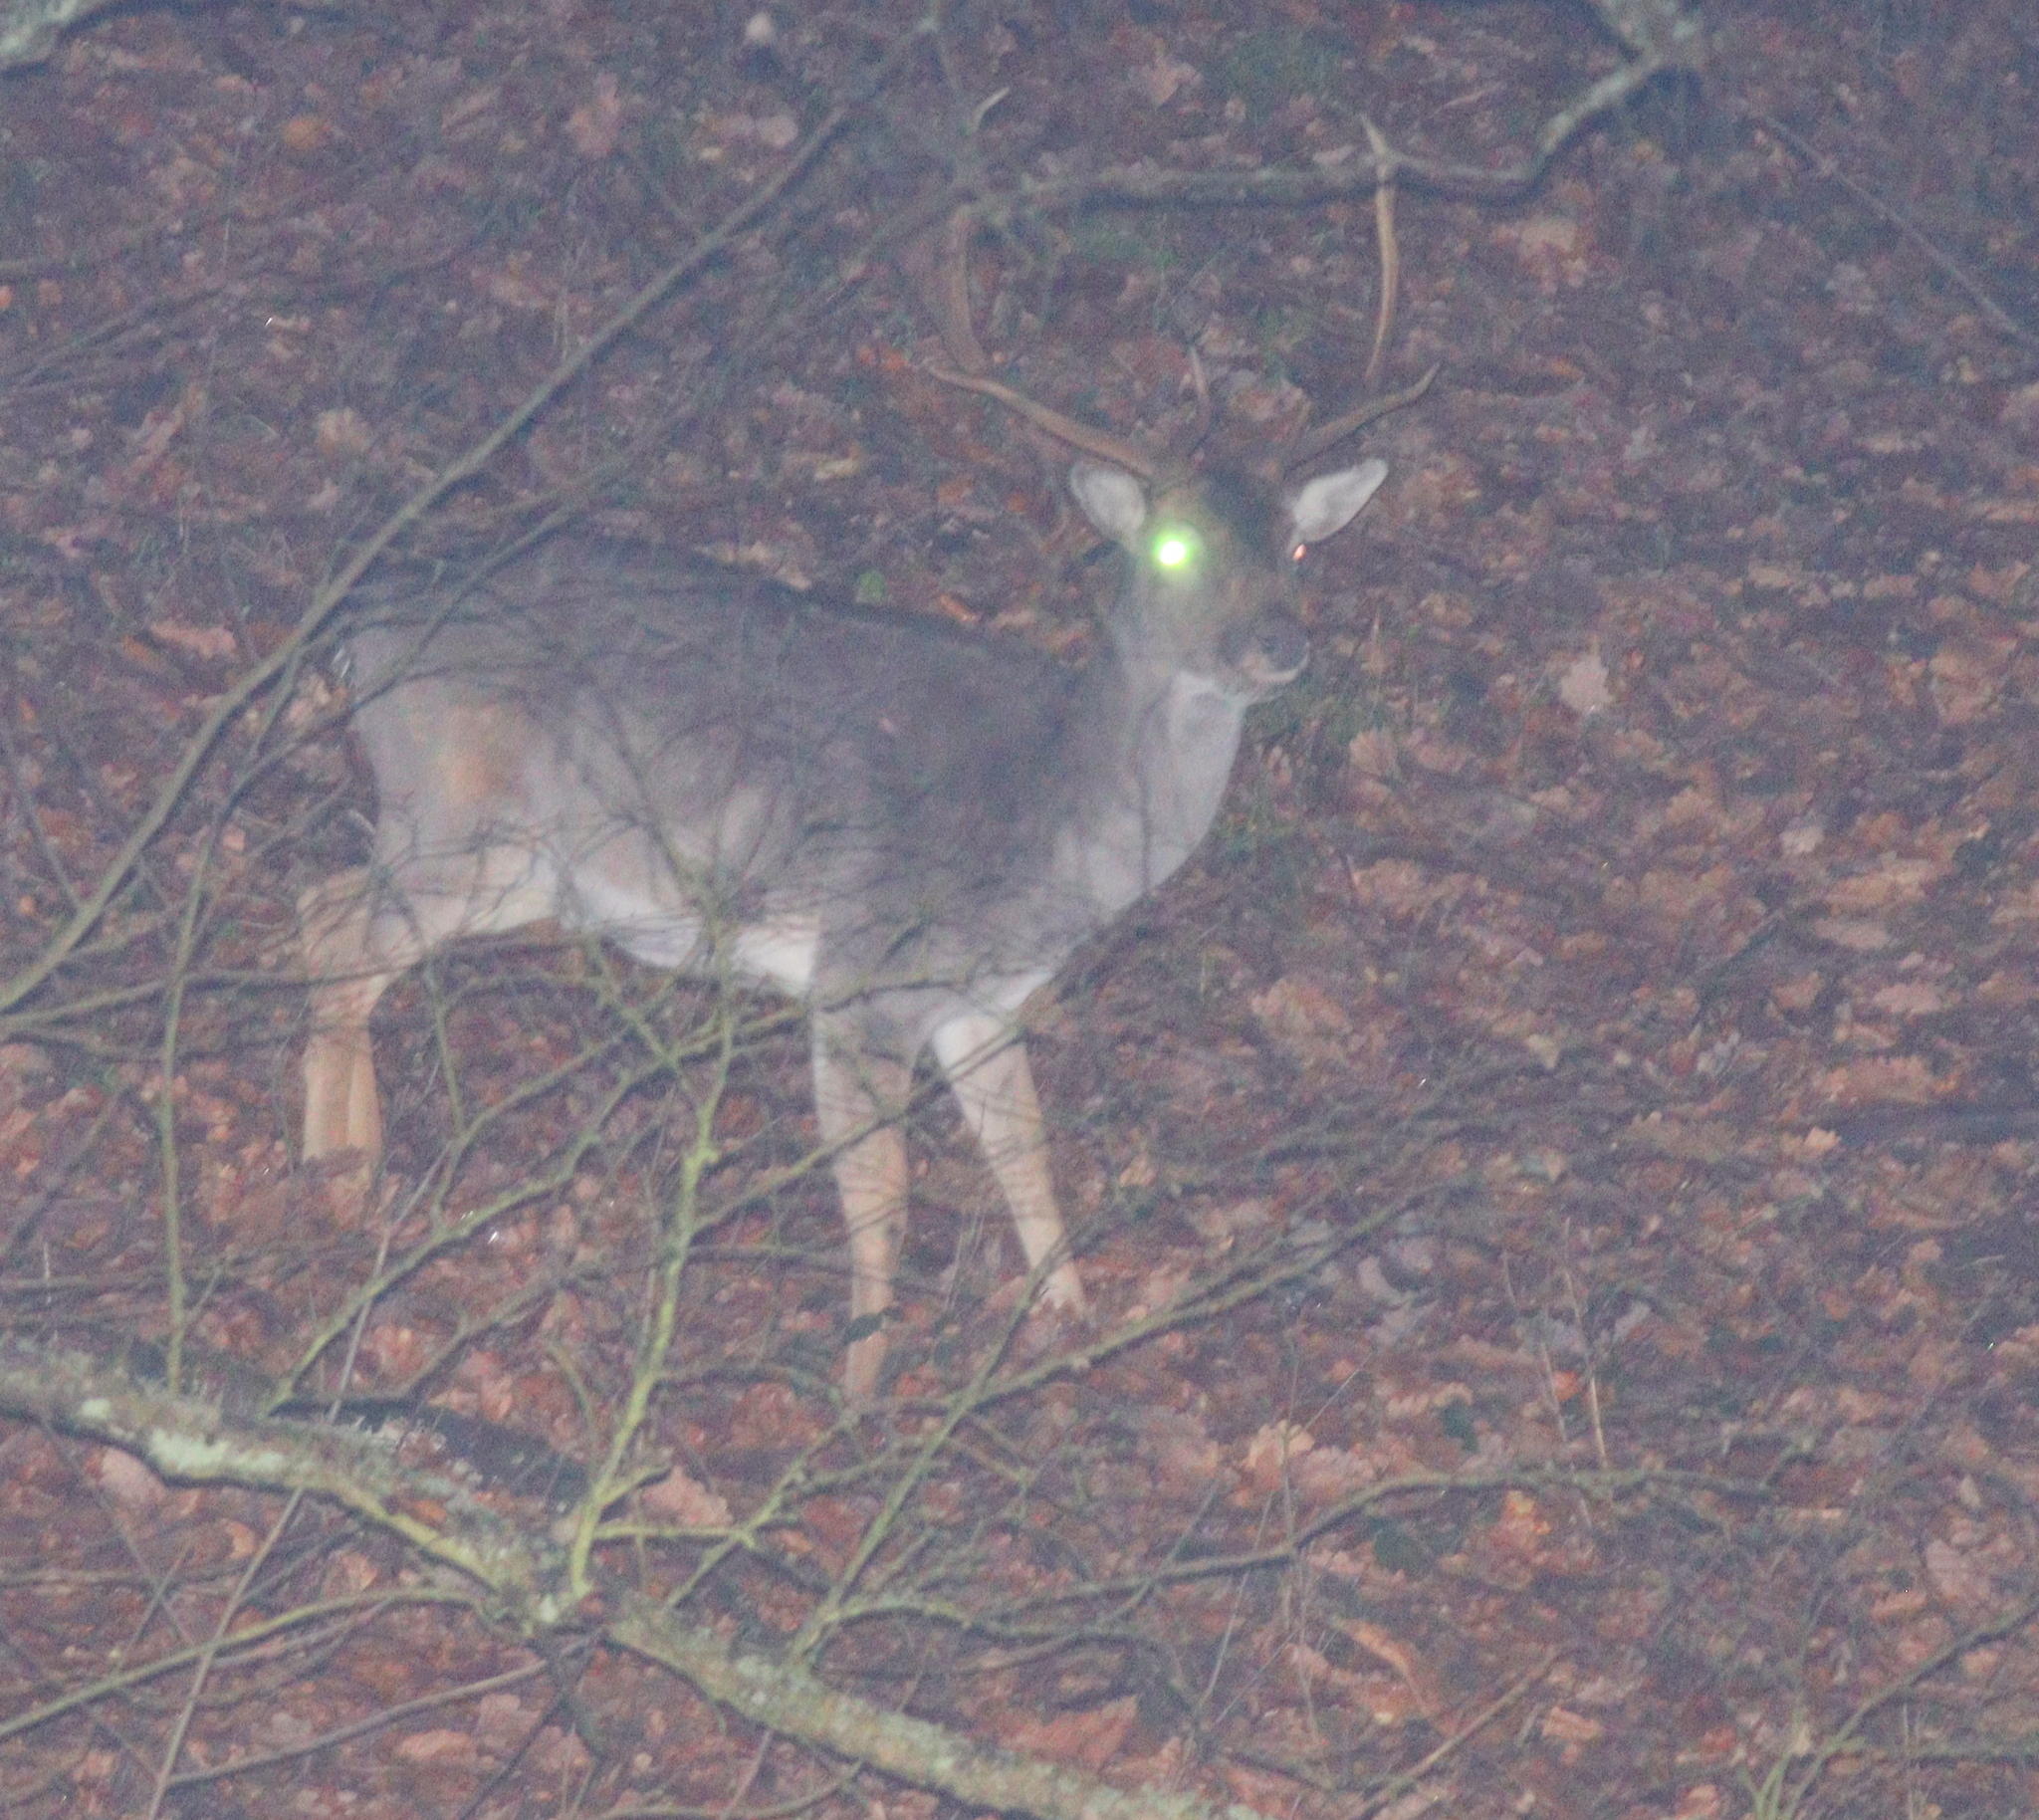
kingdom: Animalia
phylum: Chordata
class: Mammalia
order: Artiodactyla
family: Cervidae
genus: Dama
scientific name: Dama dama
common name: Fallow deer
